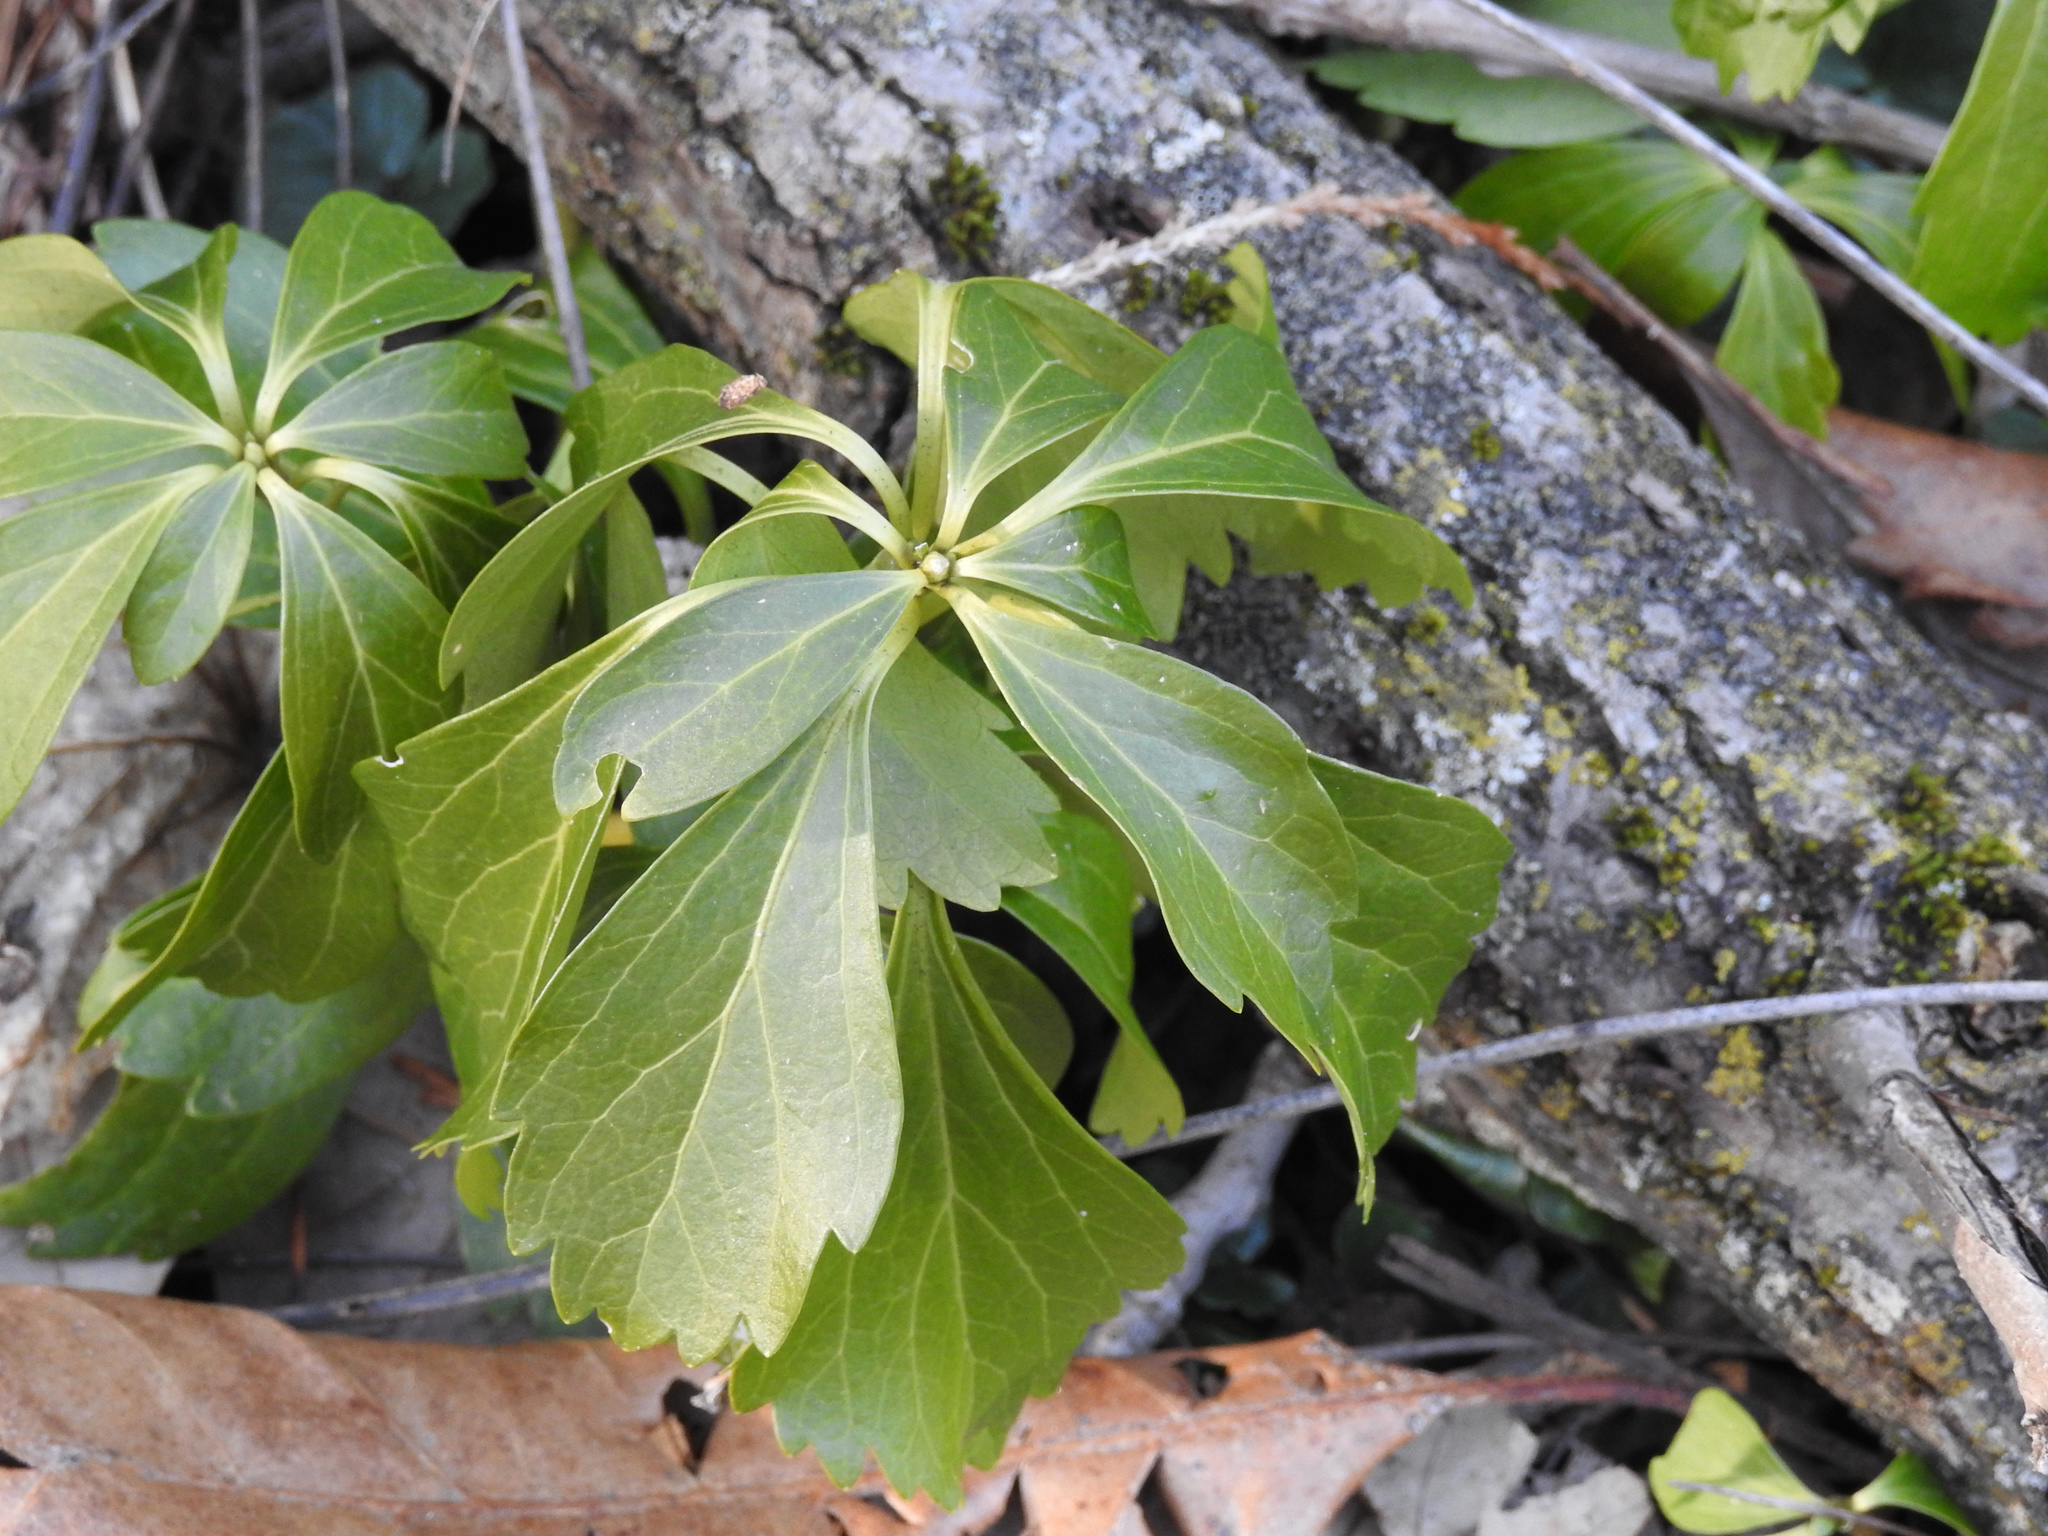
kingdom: Plantae
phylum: Tracheophyta
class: Magnoliopsida
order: Buxales
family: Buxaceae
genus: Pachysandra
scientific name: Pachysandra terminalis
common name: Japanese pachysandra
